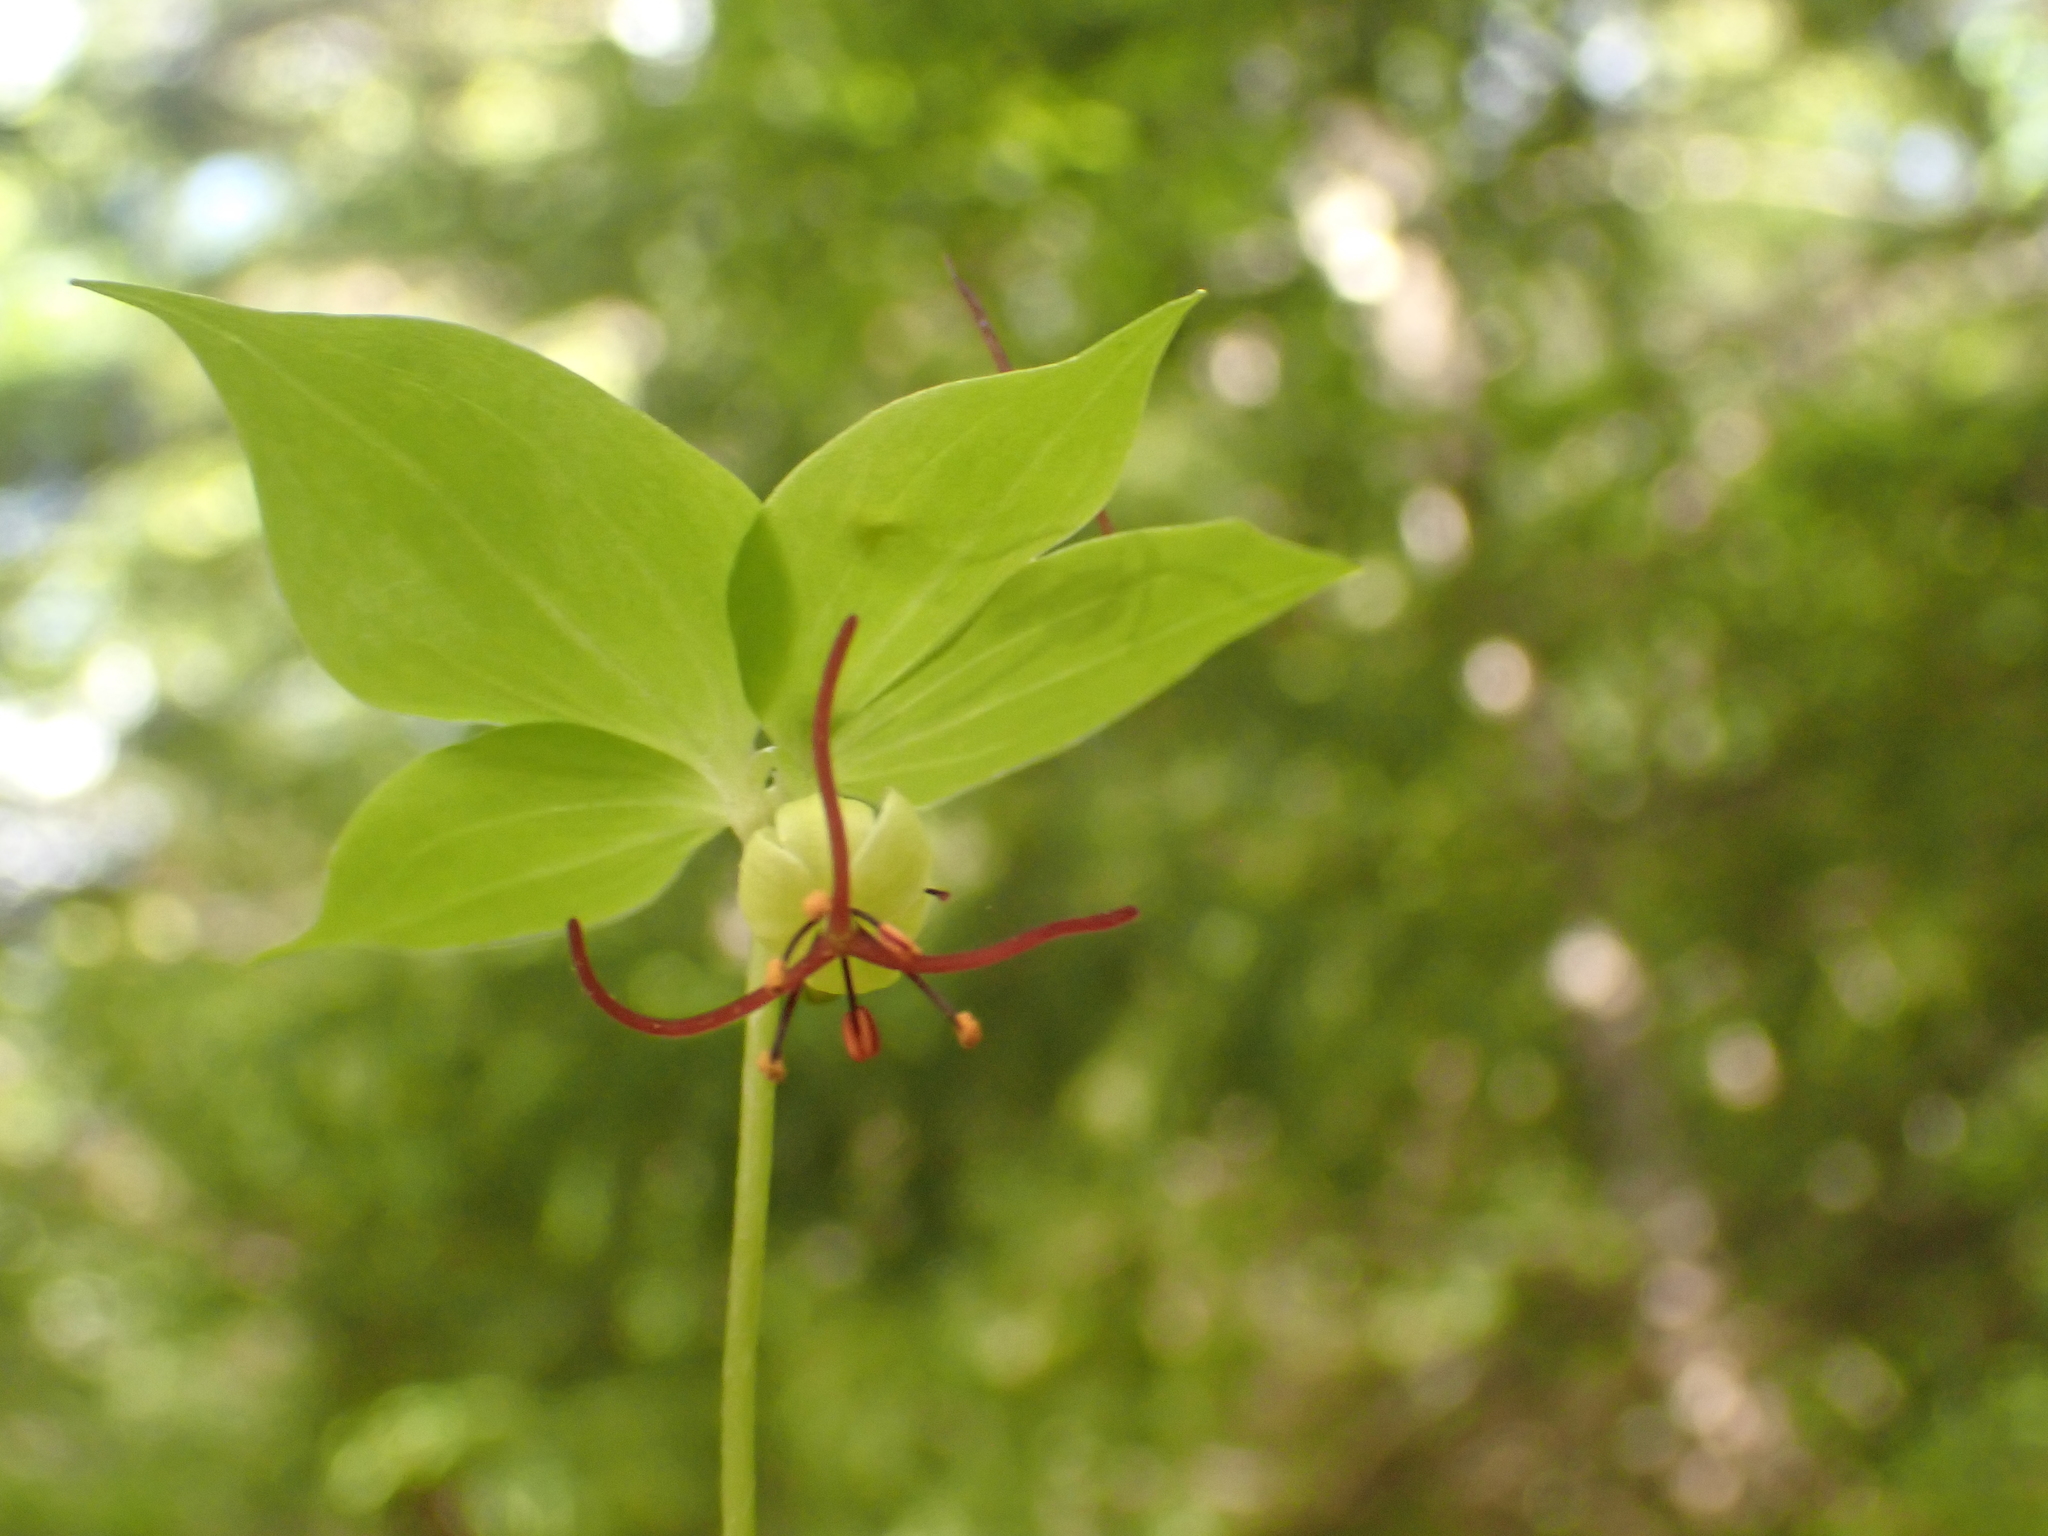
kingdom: Plantae
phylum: Tracheophyta
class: Liliopsida
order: Liliales
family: Liliaceae
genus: Medeola
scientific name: Medeola virginiana
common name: Indian cucumber-root
